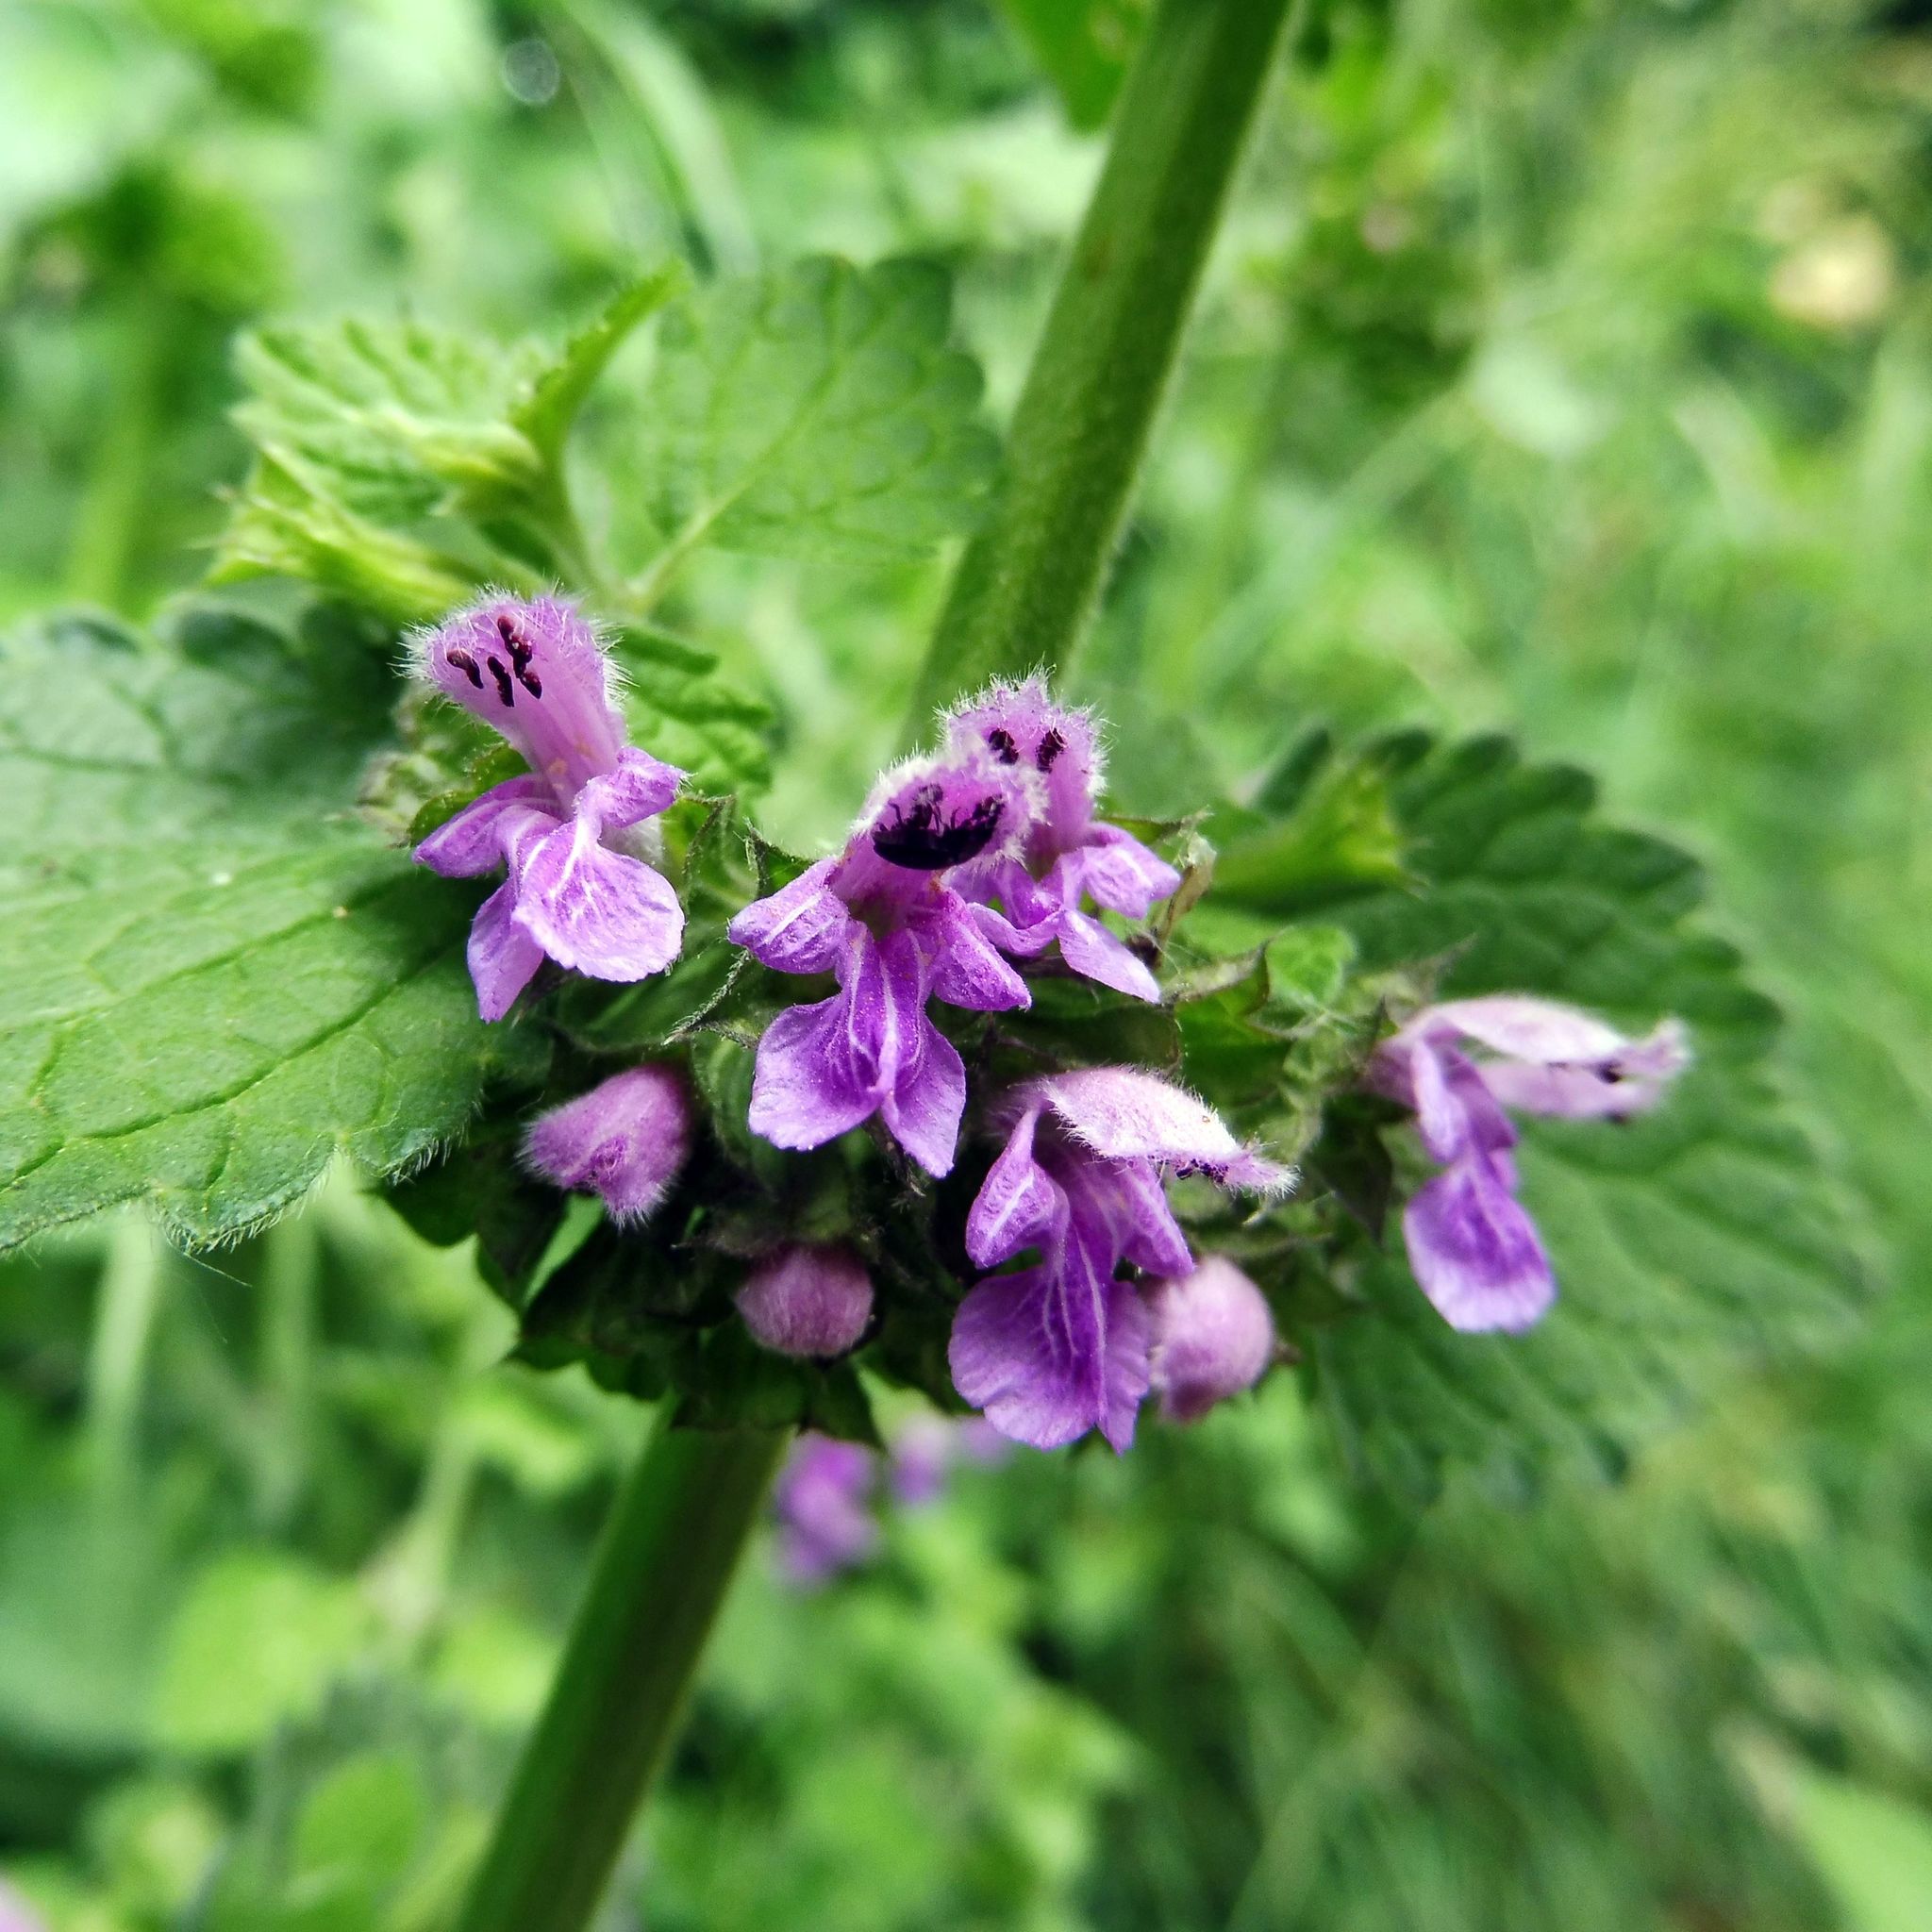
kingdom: Plantae
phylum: Tracheophyta
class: Magnoliopsida
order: Lamiales
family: Lamiaceae
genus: Ballota
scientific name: Ballota nigra
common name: Black horehound
